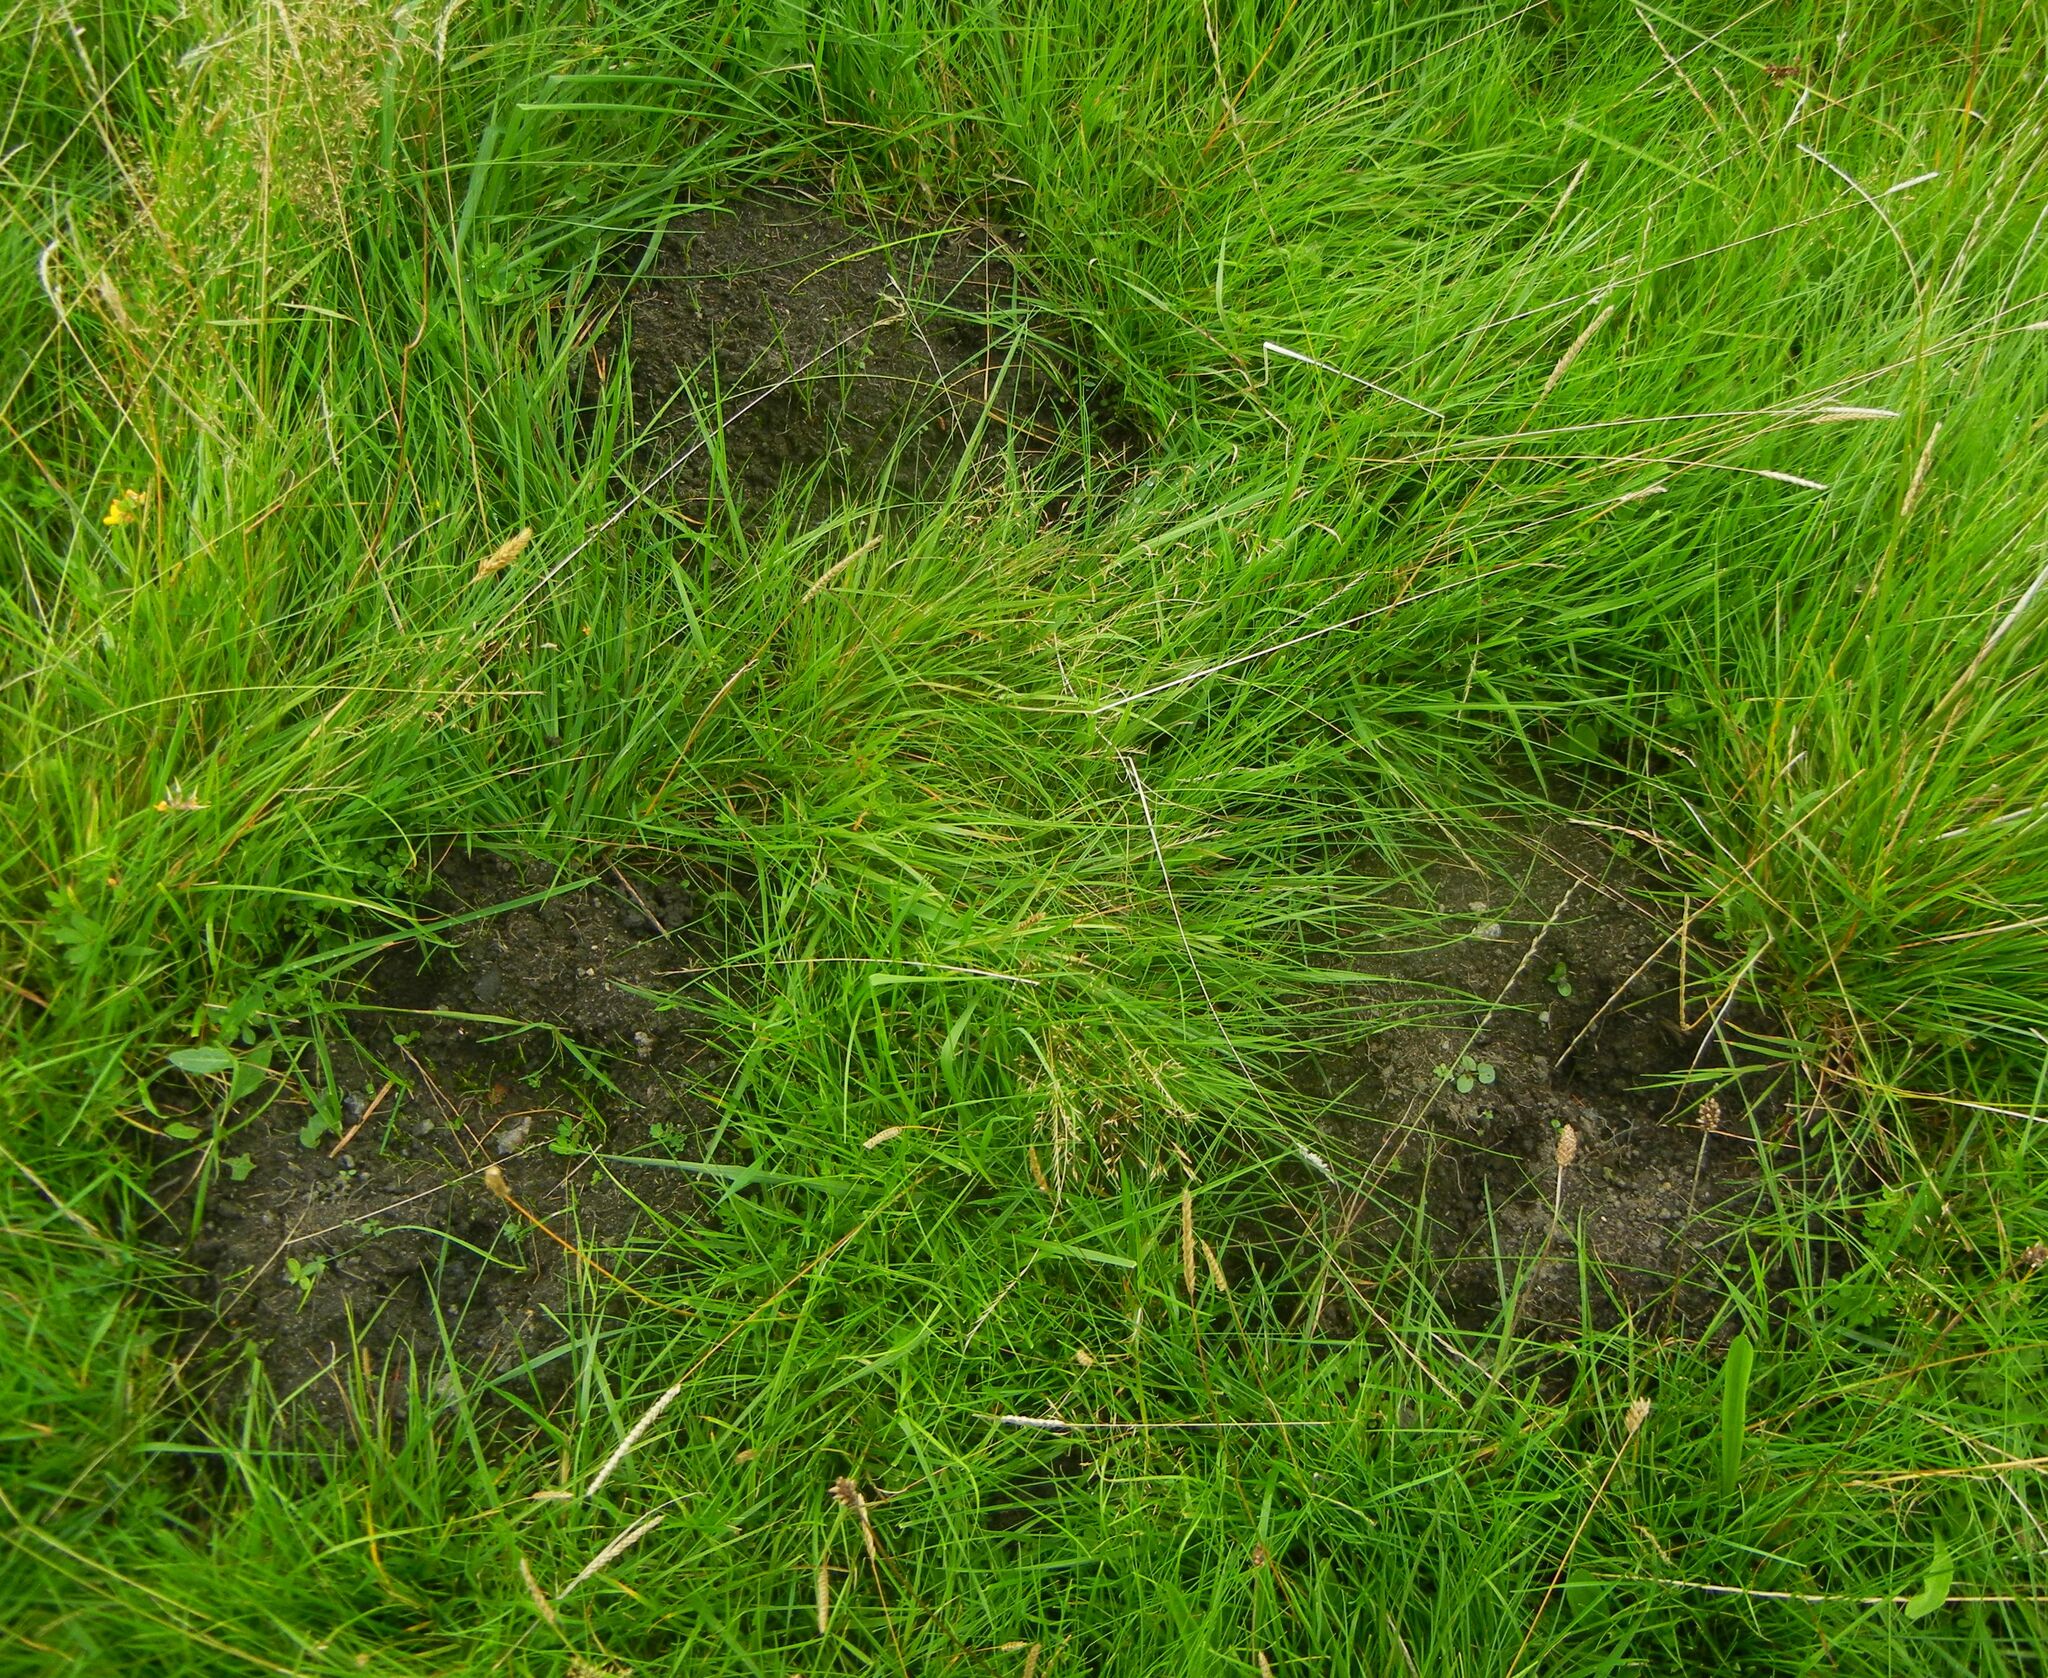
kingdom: Animalia
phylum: Chordata
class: Mammalia
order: Soricomorpha
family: Talpidae
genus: Talpa
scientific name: Talpa europaea
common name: European mole
